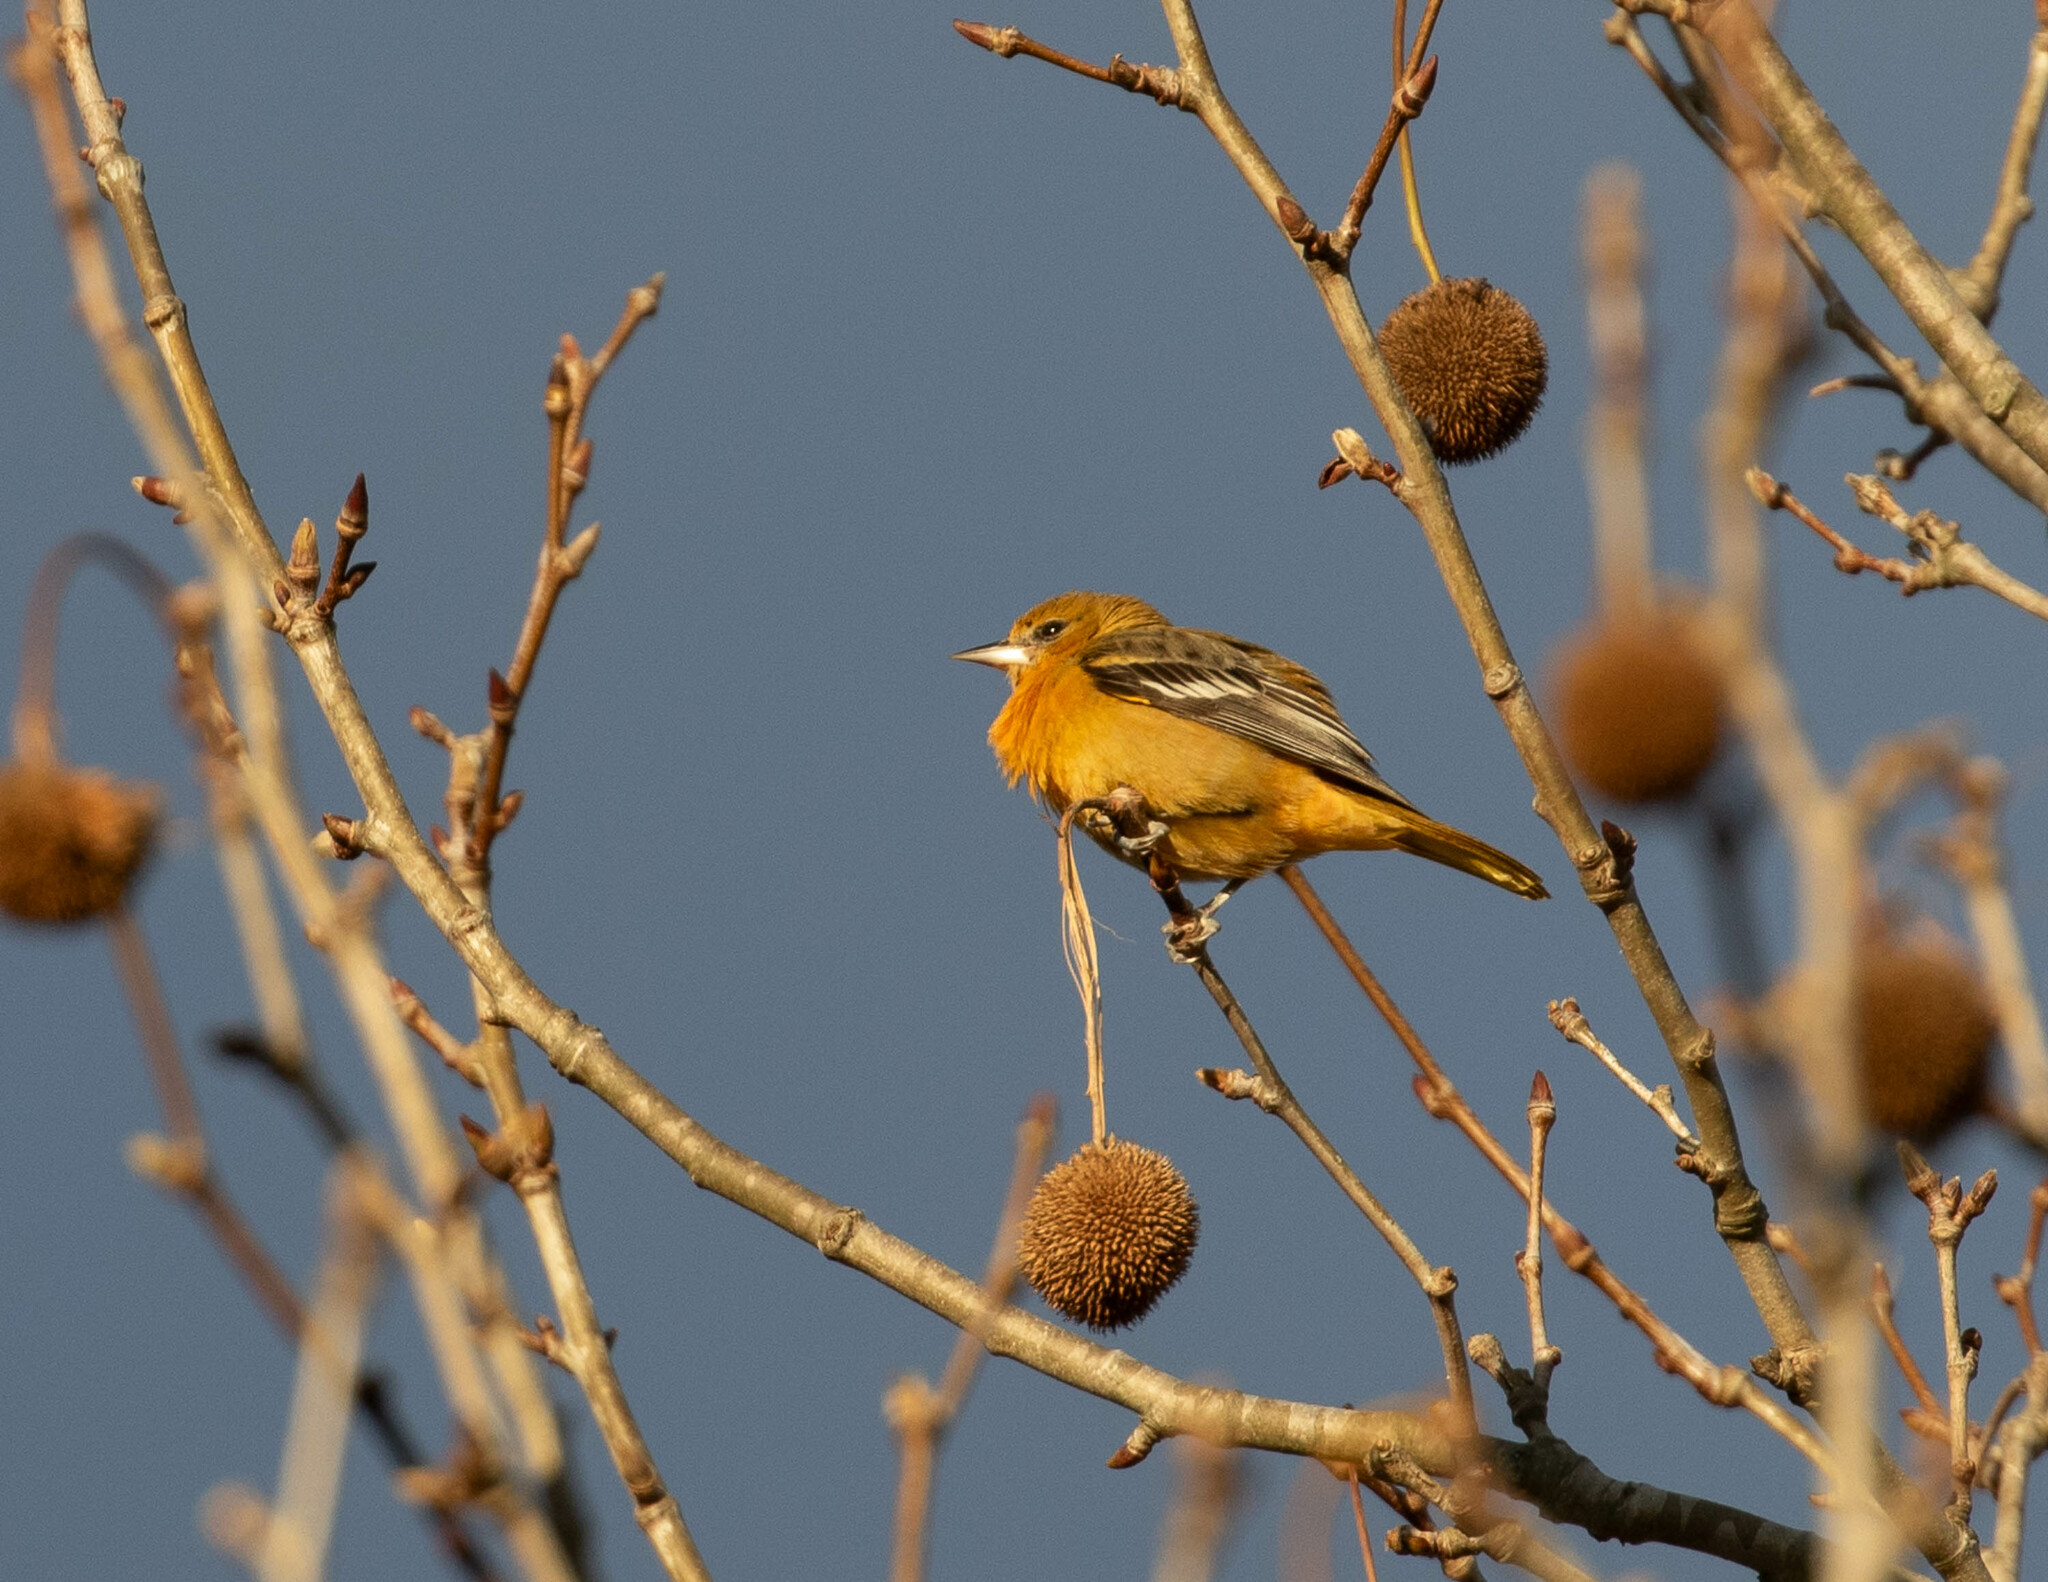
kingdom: Animalia
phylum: Chordata
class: Aves
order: Passeriformes
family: Icteridae
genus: Icterus
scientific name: Icterus galbula
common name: Baltimore oriole
